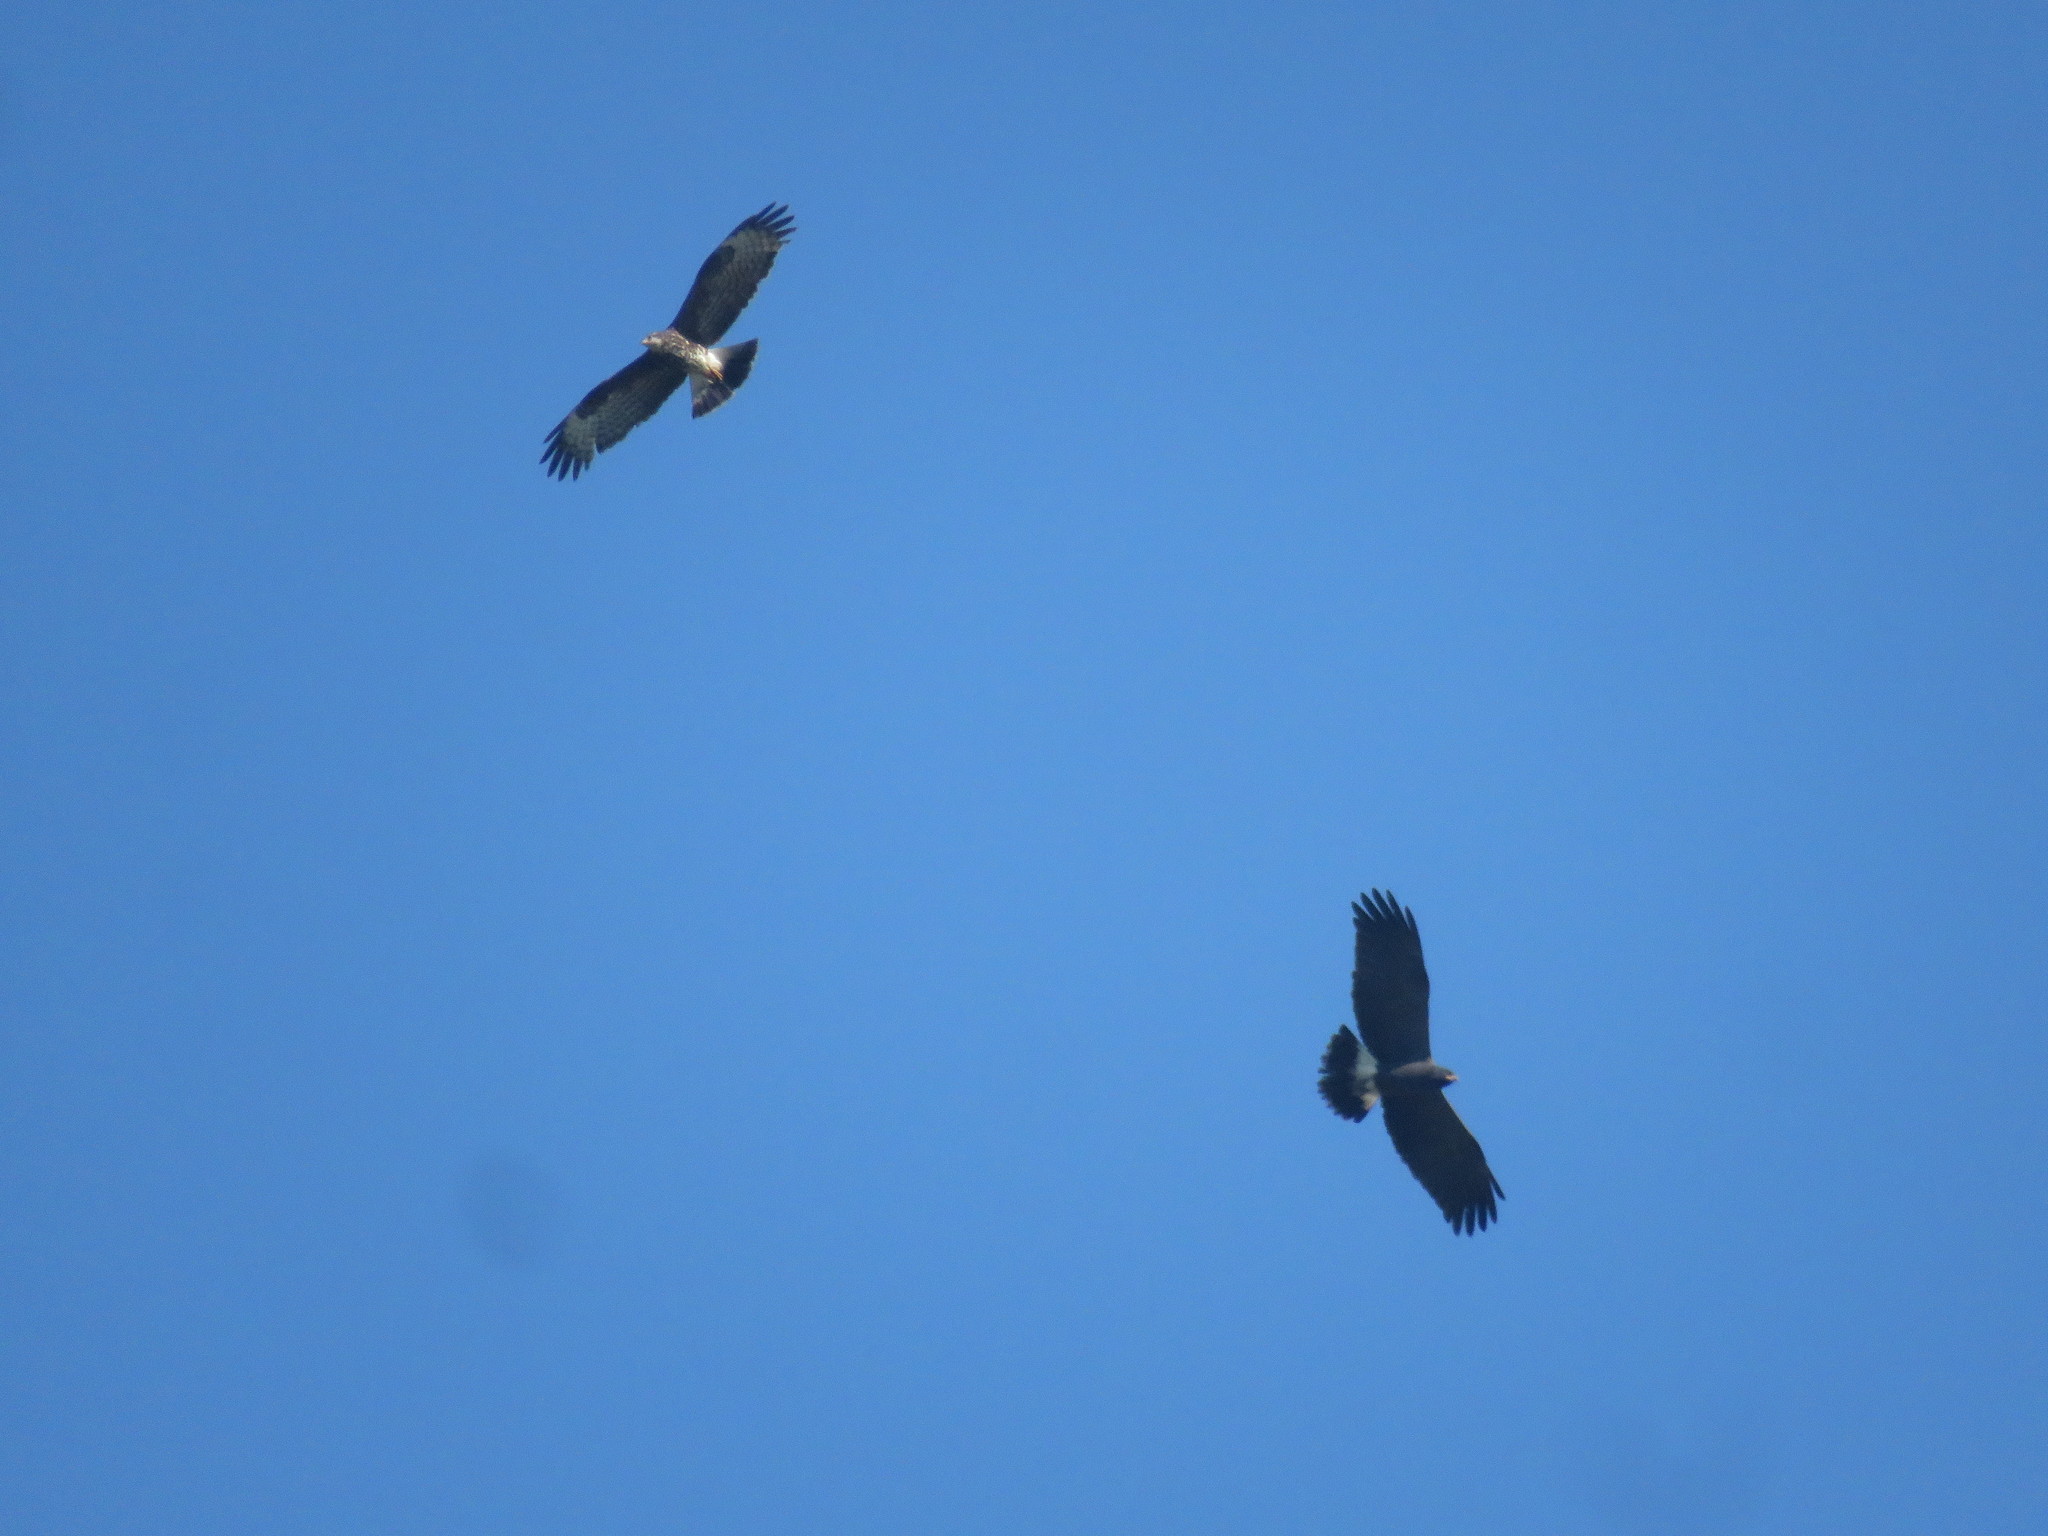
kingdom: Animalia
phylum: Chordata
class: Aves
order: Accipitriformes
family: Accipitridae
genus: Rostrhamus
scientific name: Rostrhamus sociabilis
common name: Snail kite
